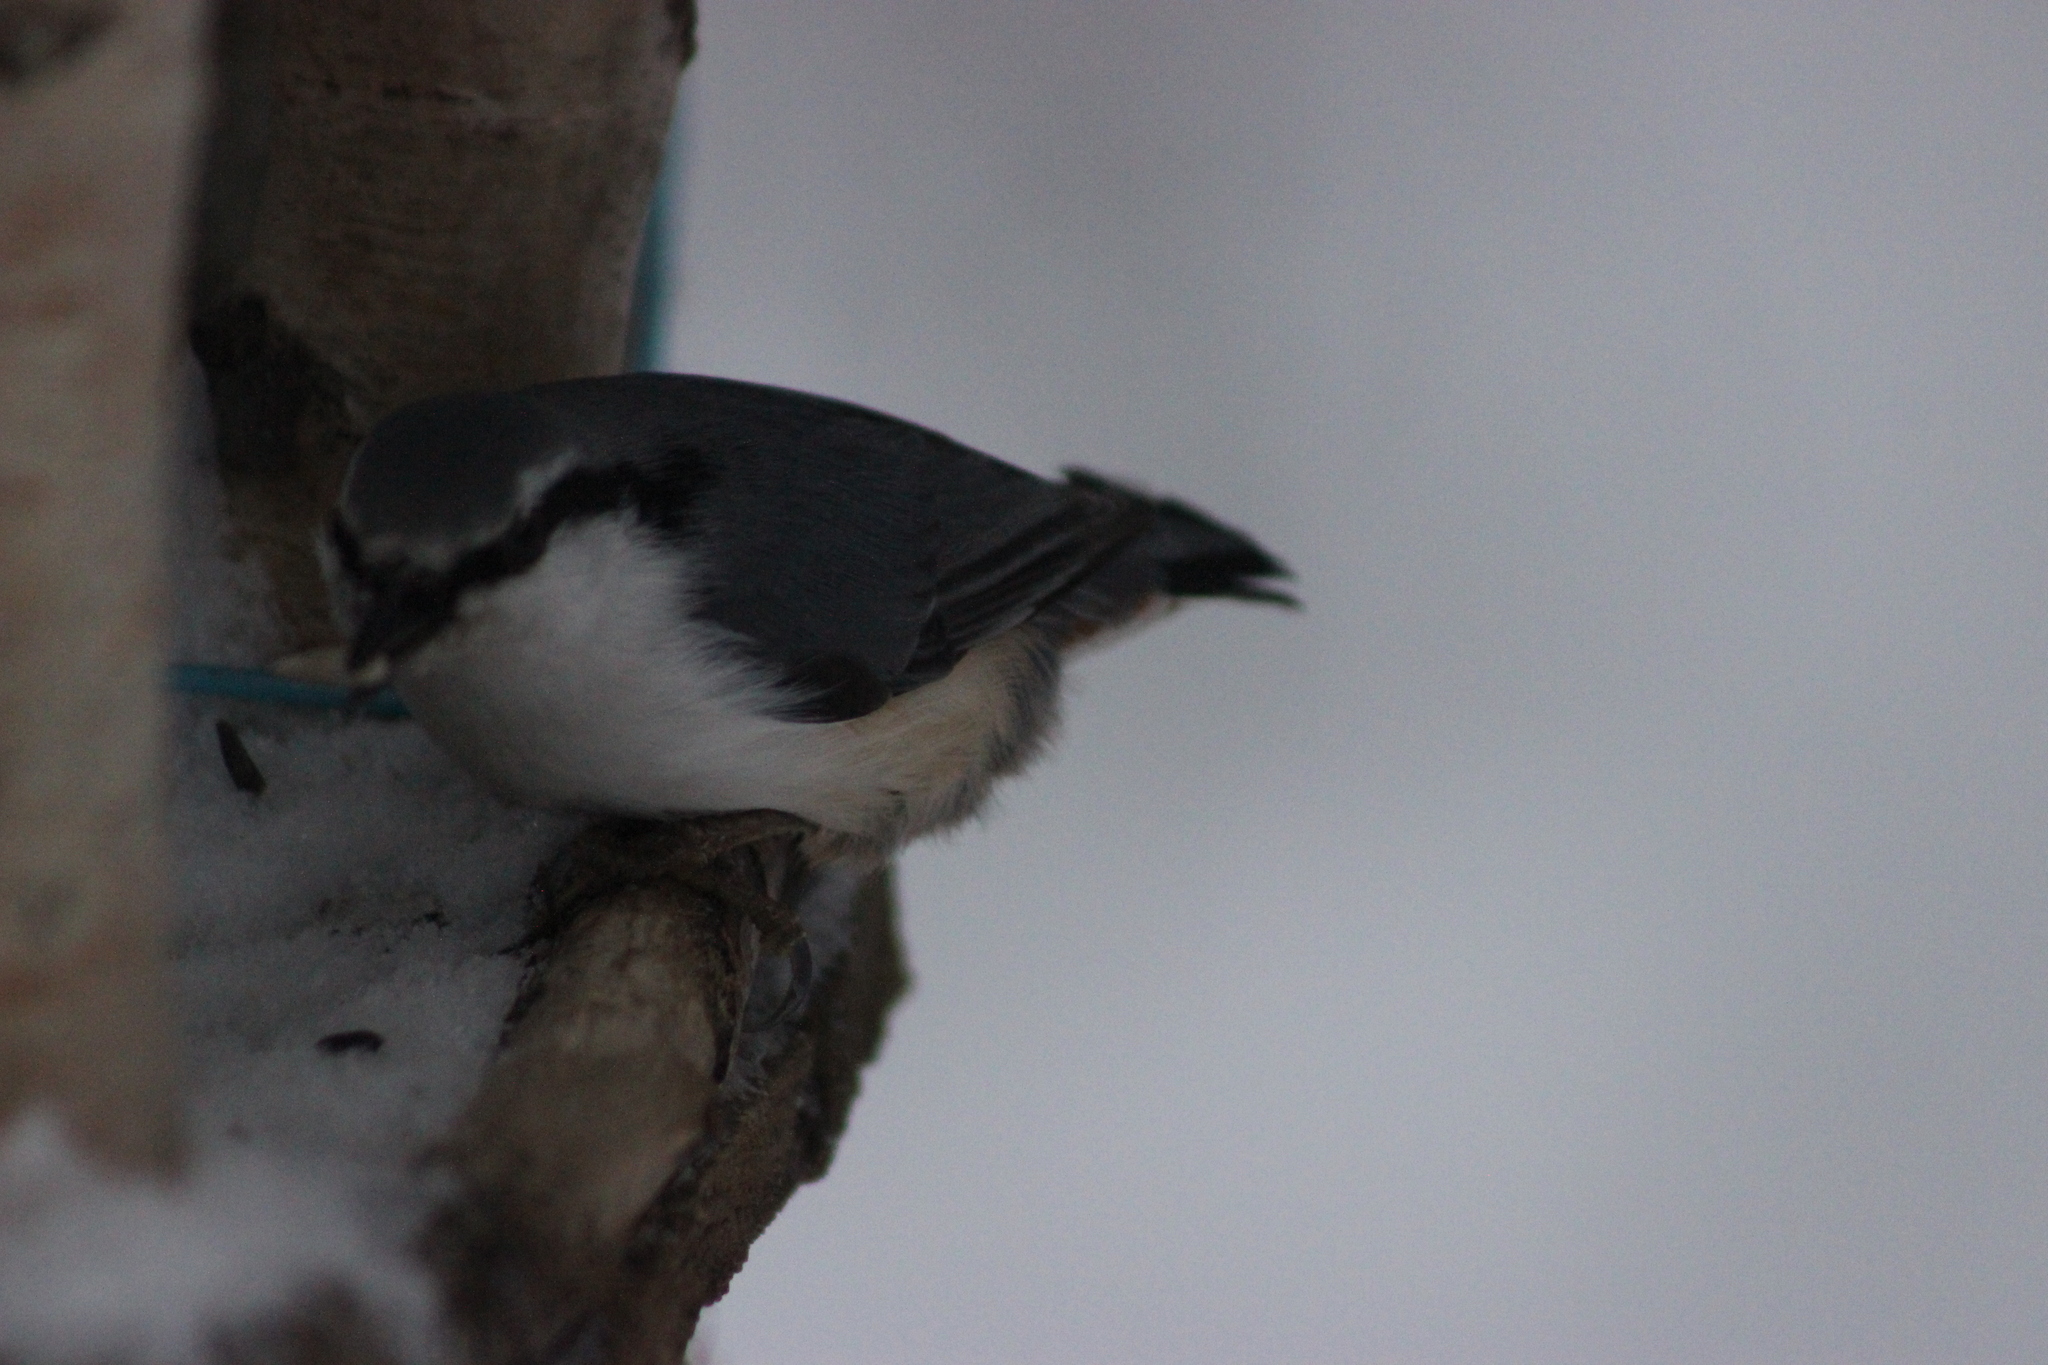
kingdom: Animalia
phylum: Chordata
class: Aves
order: Passeriformes
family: Sittidae
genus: Sitta
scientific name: Sitta europaea
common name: Eurasian nuthatch
